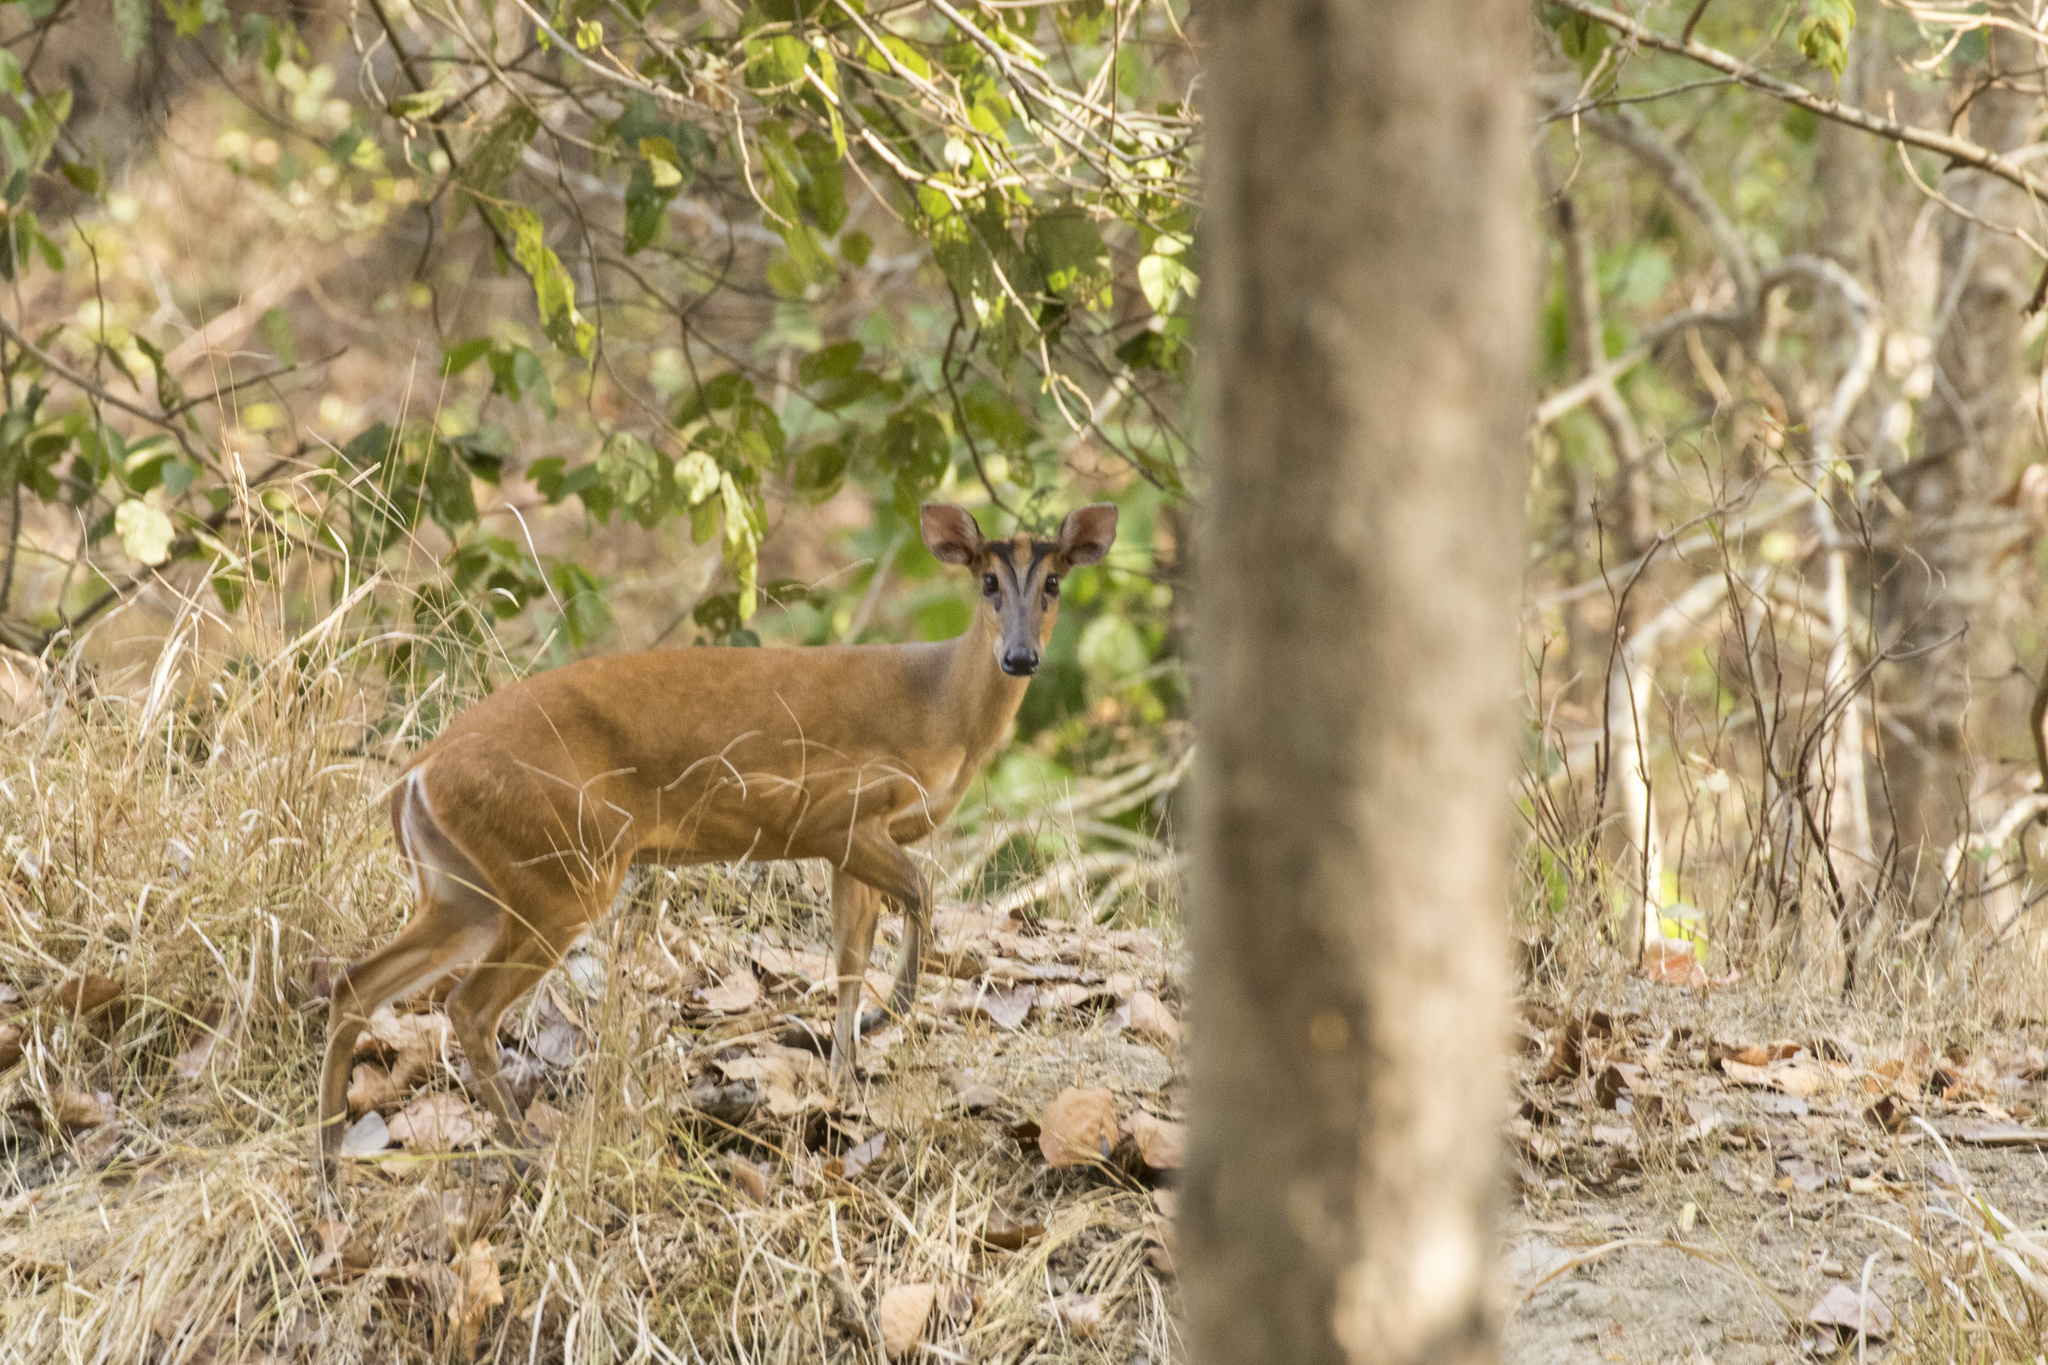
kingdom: Animalia
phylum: Chordata
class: Mammalia
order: Artiodactyla
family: Cervidae
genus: Muntiacus
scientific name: Muntiacus muntjak
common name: Indian muntjac
